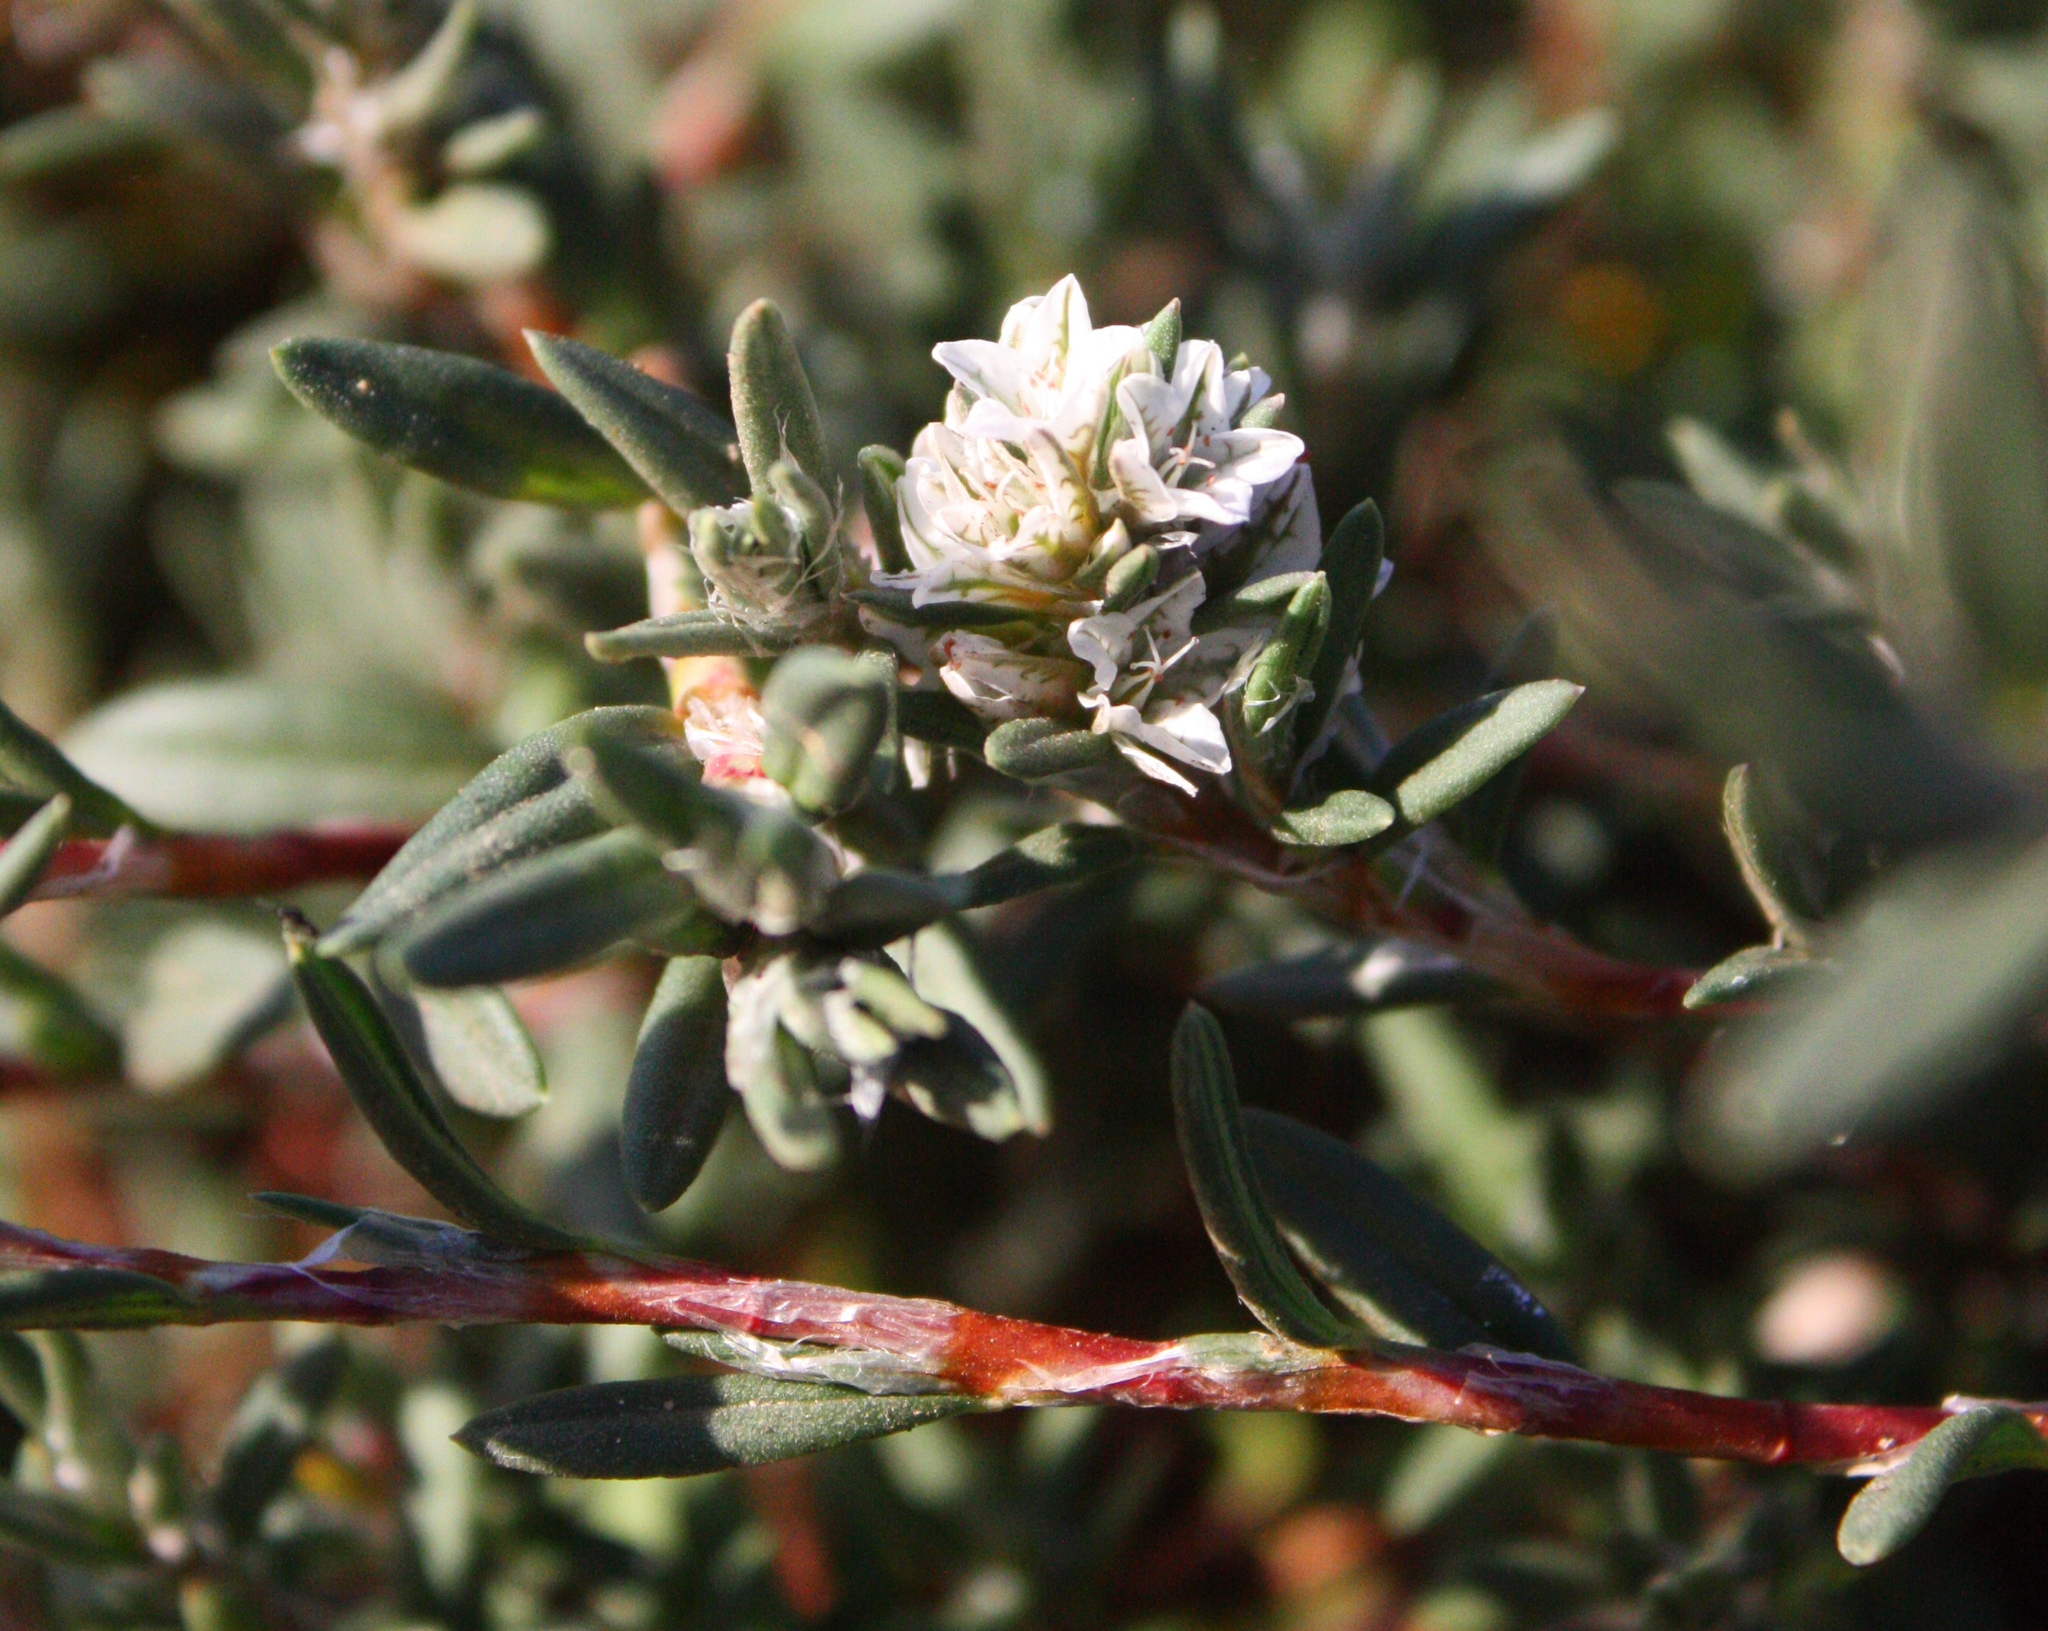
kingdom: Plantae
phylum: Tracheophyta
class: Magnoliopsida
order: Caryophyllales
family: Polygonaceae
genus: Polygonum
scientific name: Polygonum paronychia
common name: Dune knotweed
